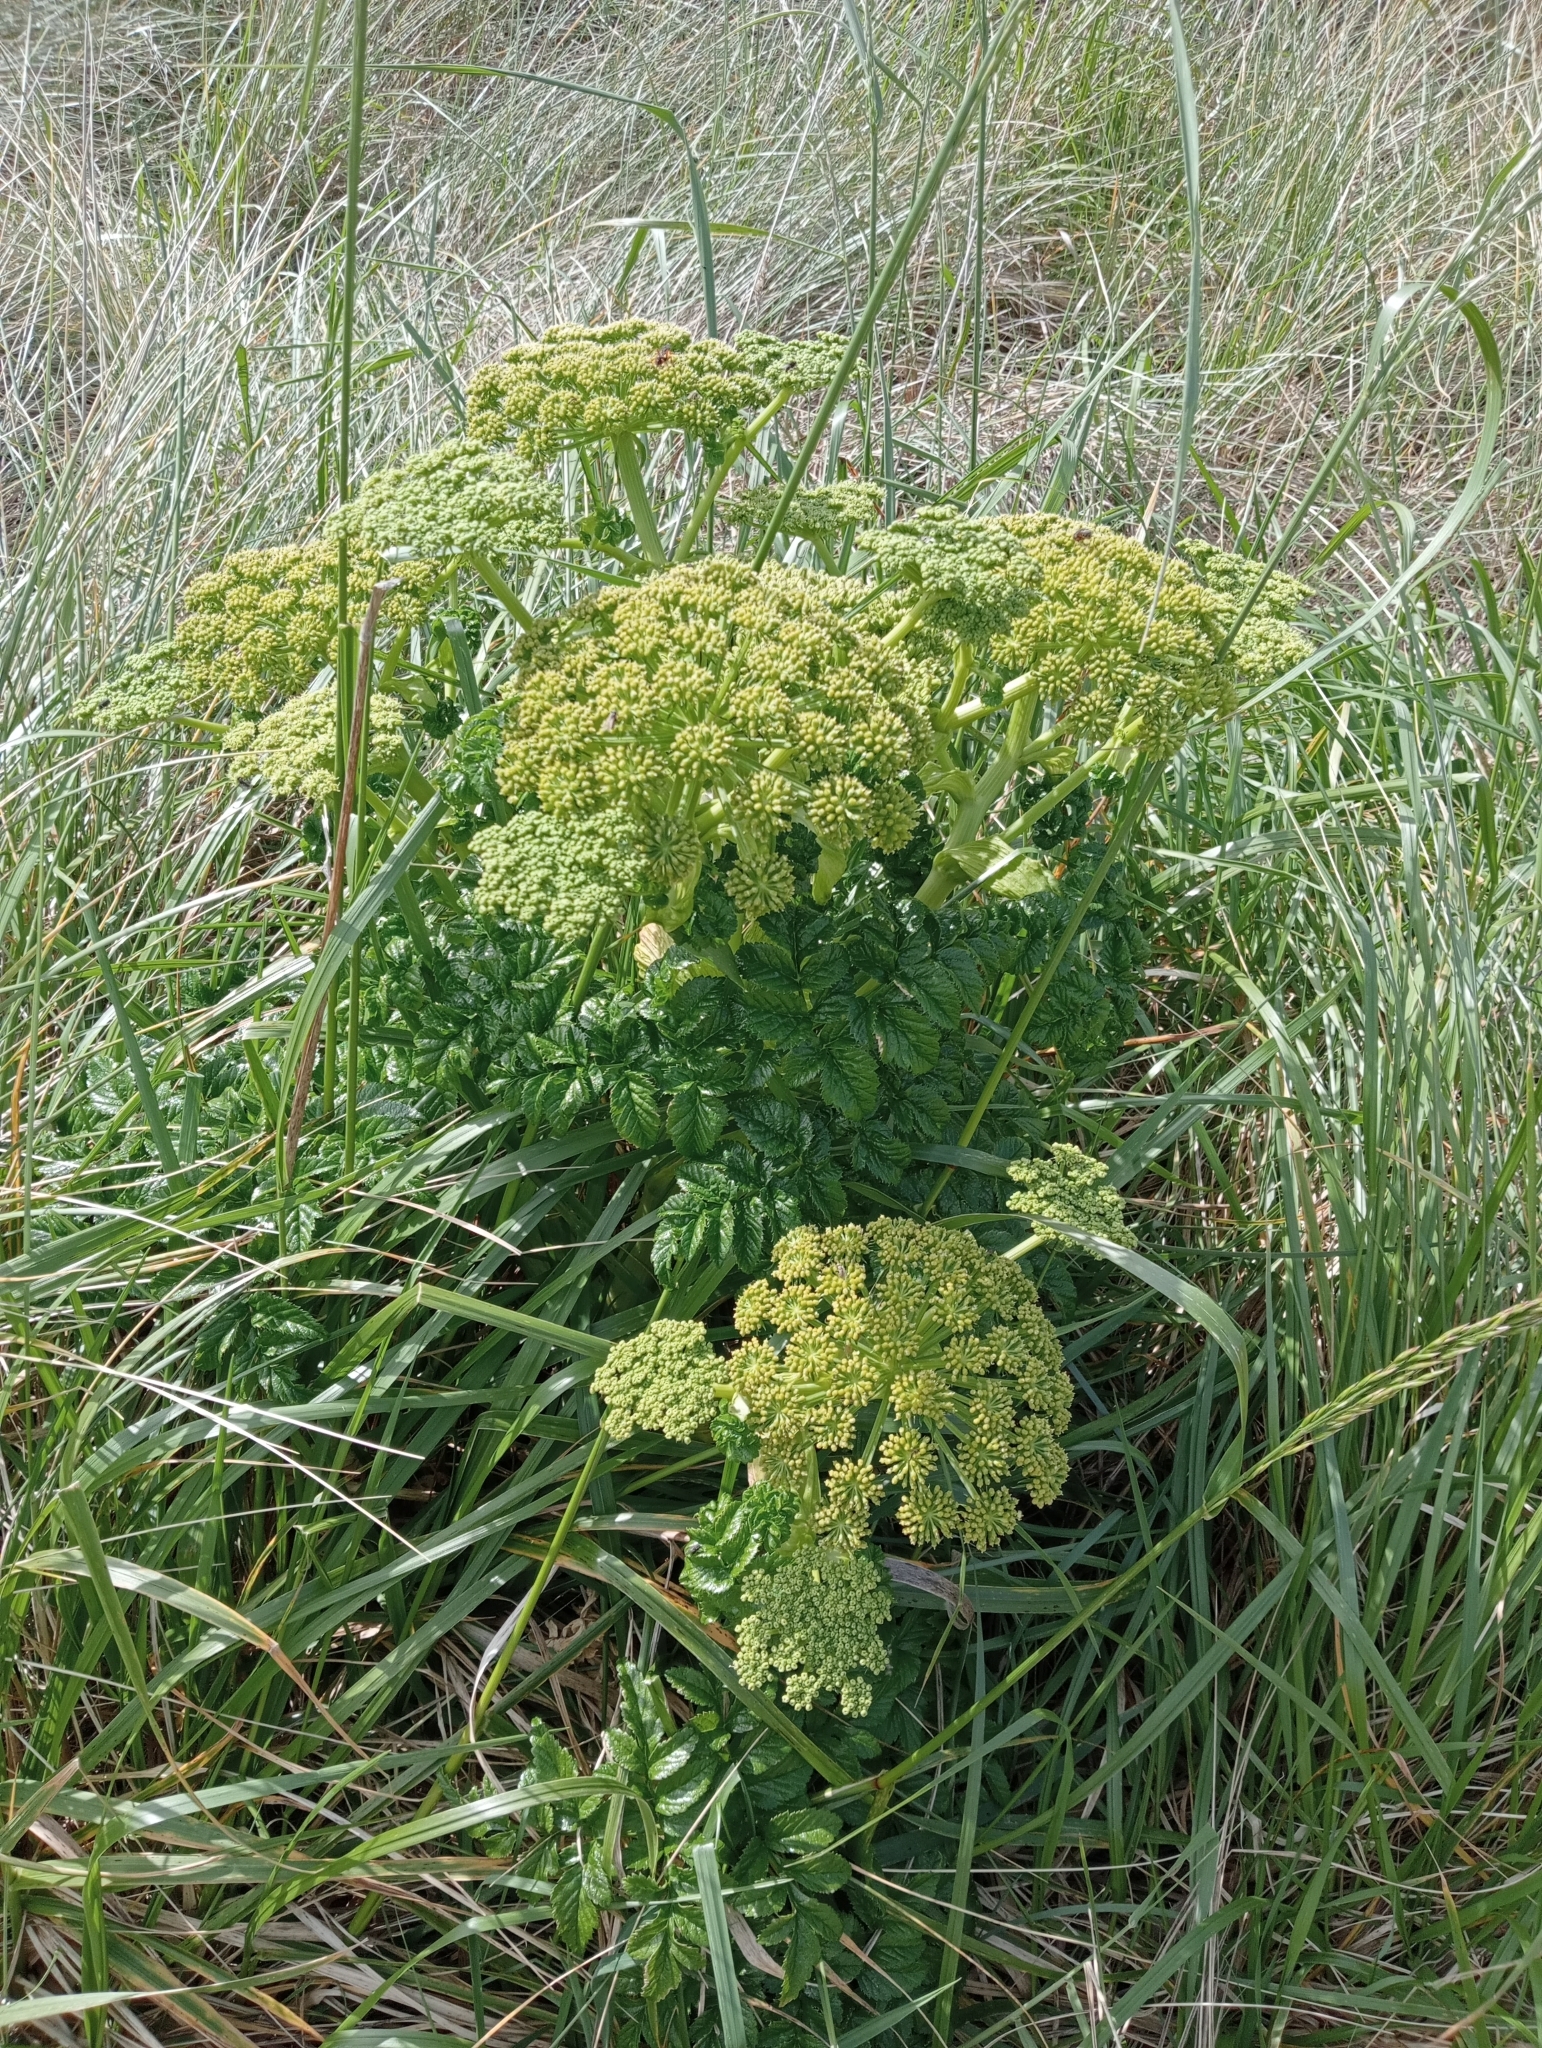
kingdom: Plantae
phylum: Tracheophyta
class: Magnoliopsida
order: Apiales
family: Apiaceae
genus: Angelica
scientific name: Angelica pachycarpa
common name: Portuguese angelica
